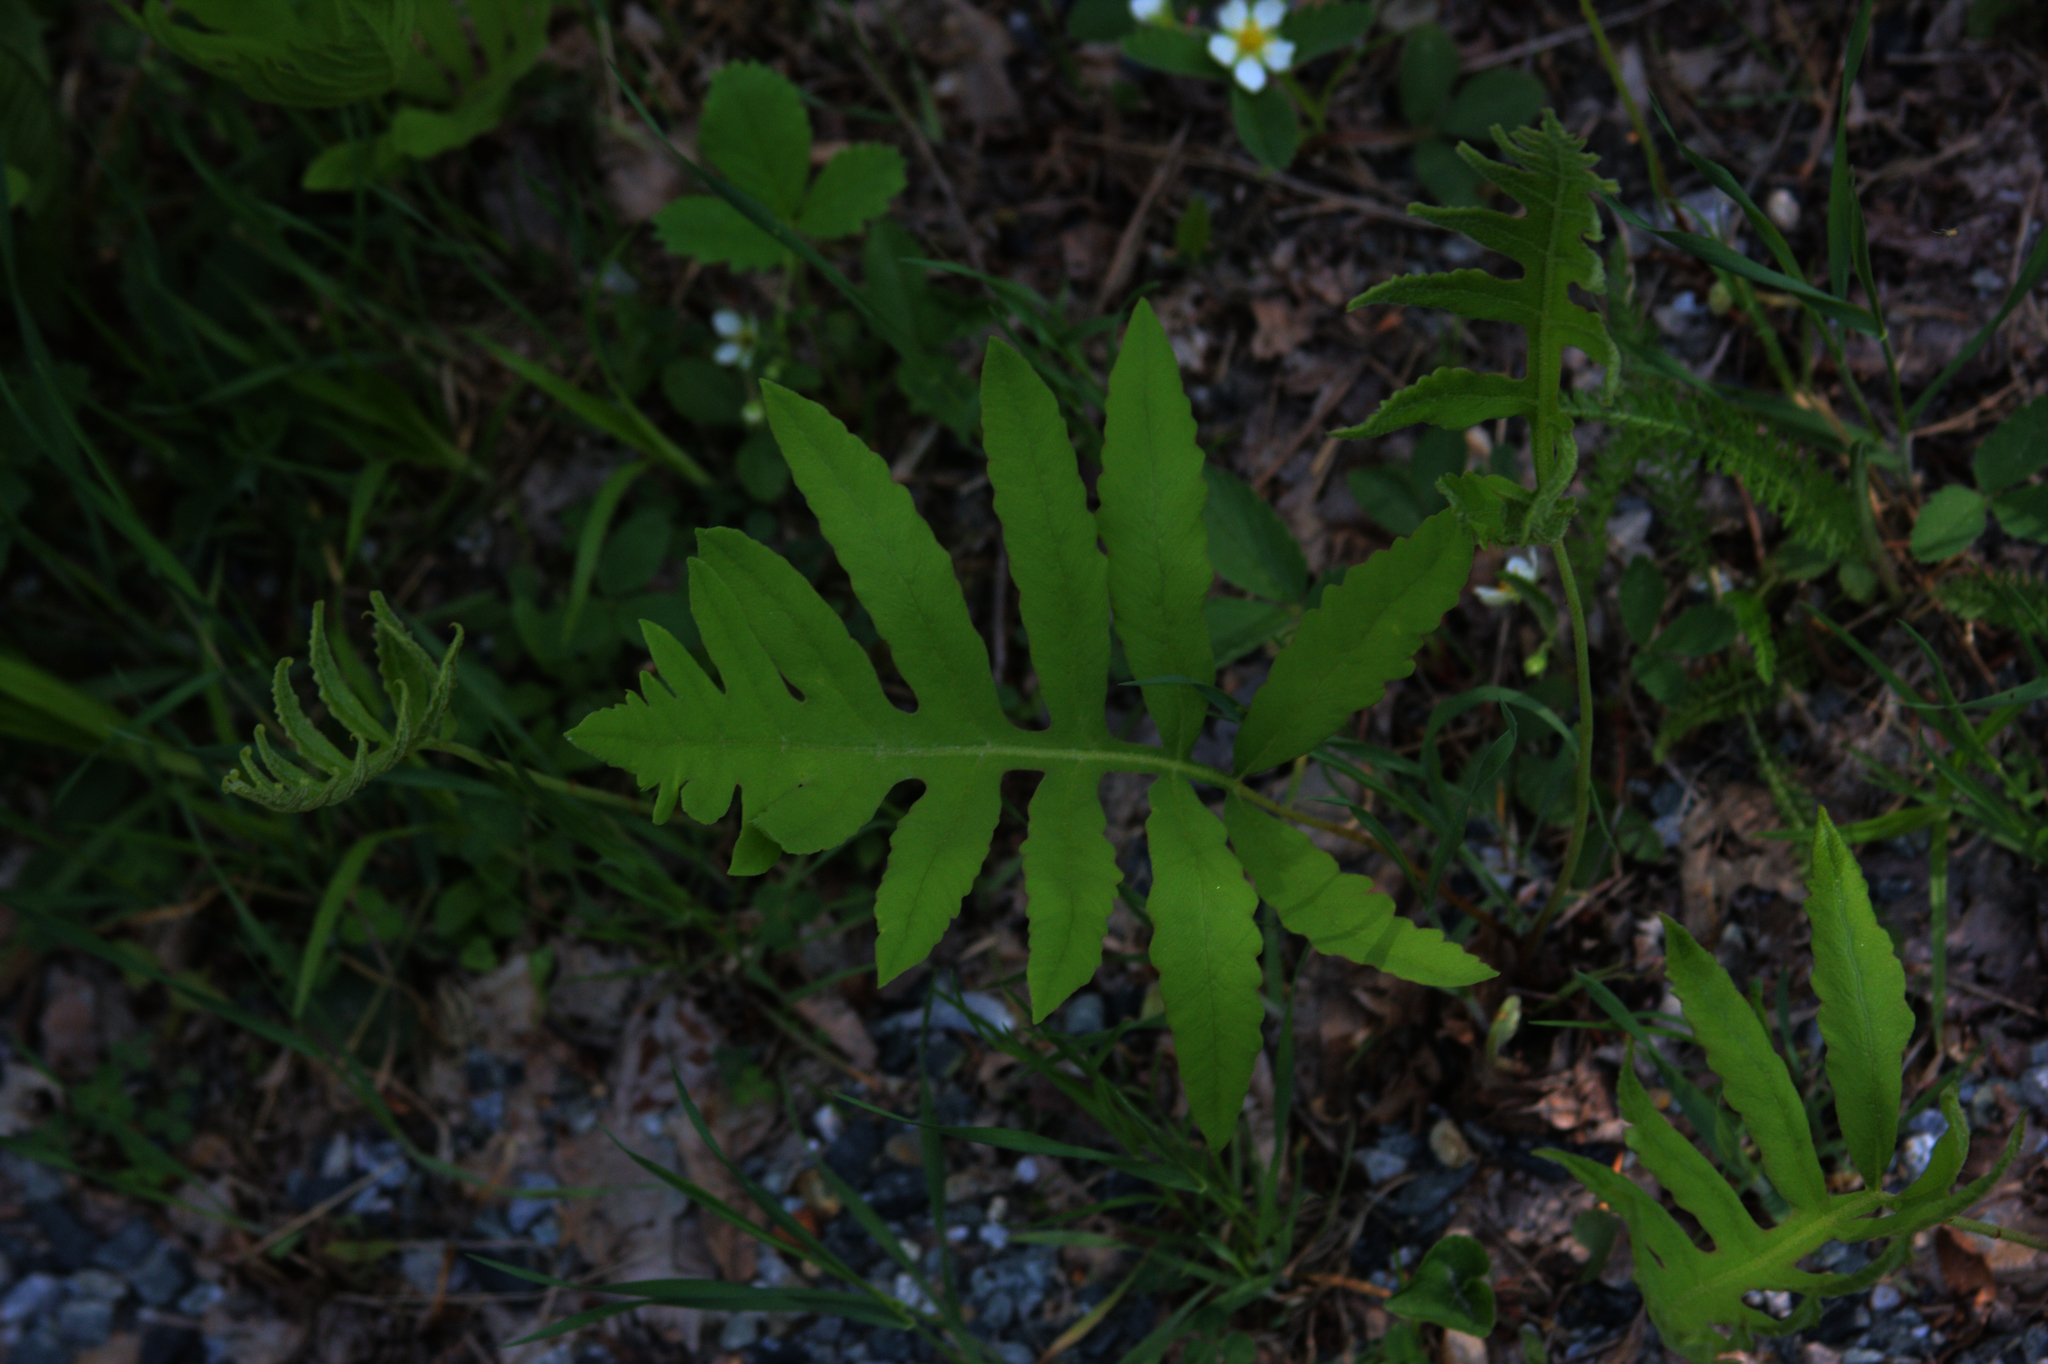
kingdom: Plantae
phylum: Tracheophyta
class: Polypodiopsida
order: Polypodiales
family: Onocleaceae
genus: Onoclea
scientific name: Onoclea sensibilis
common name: Sensitive fern
